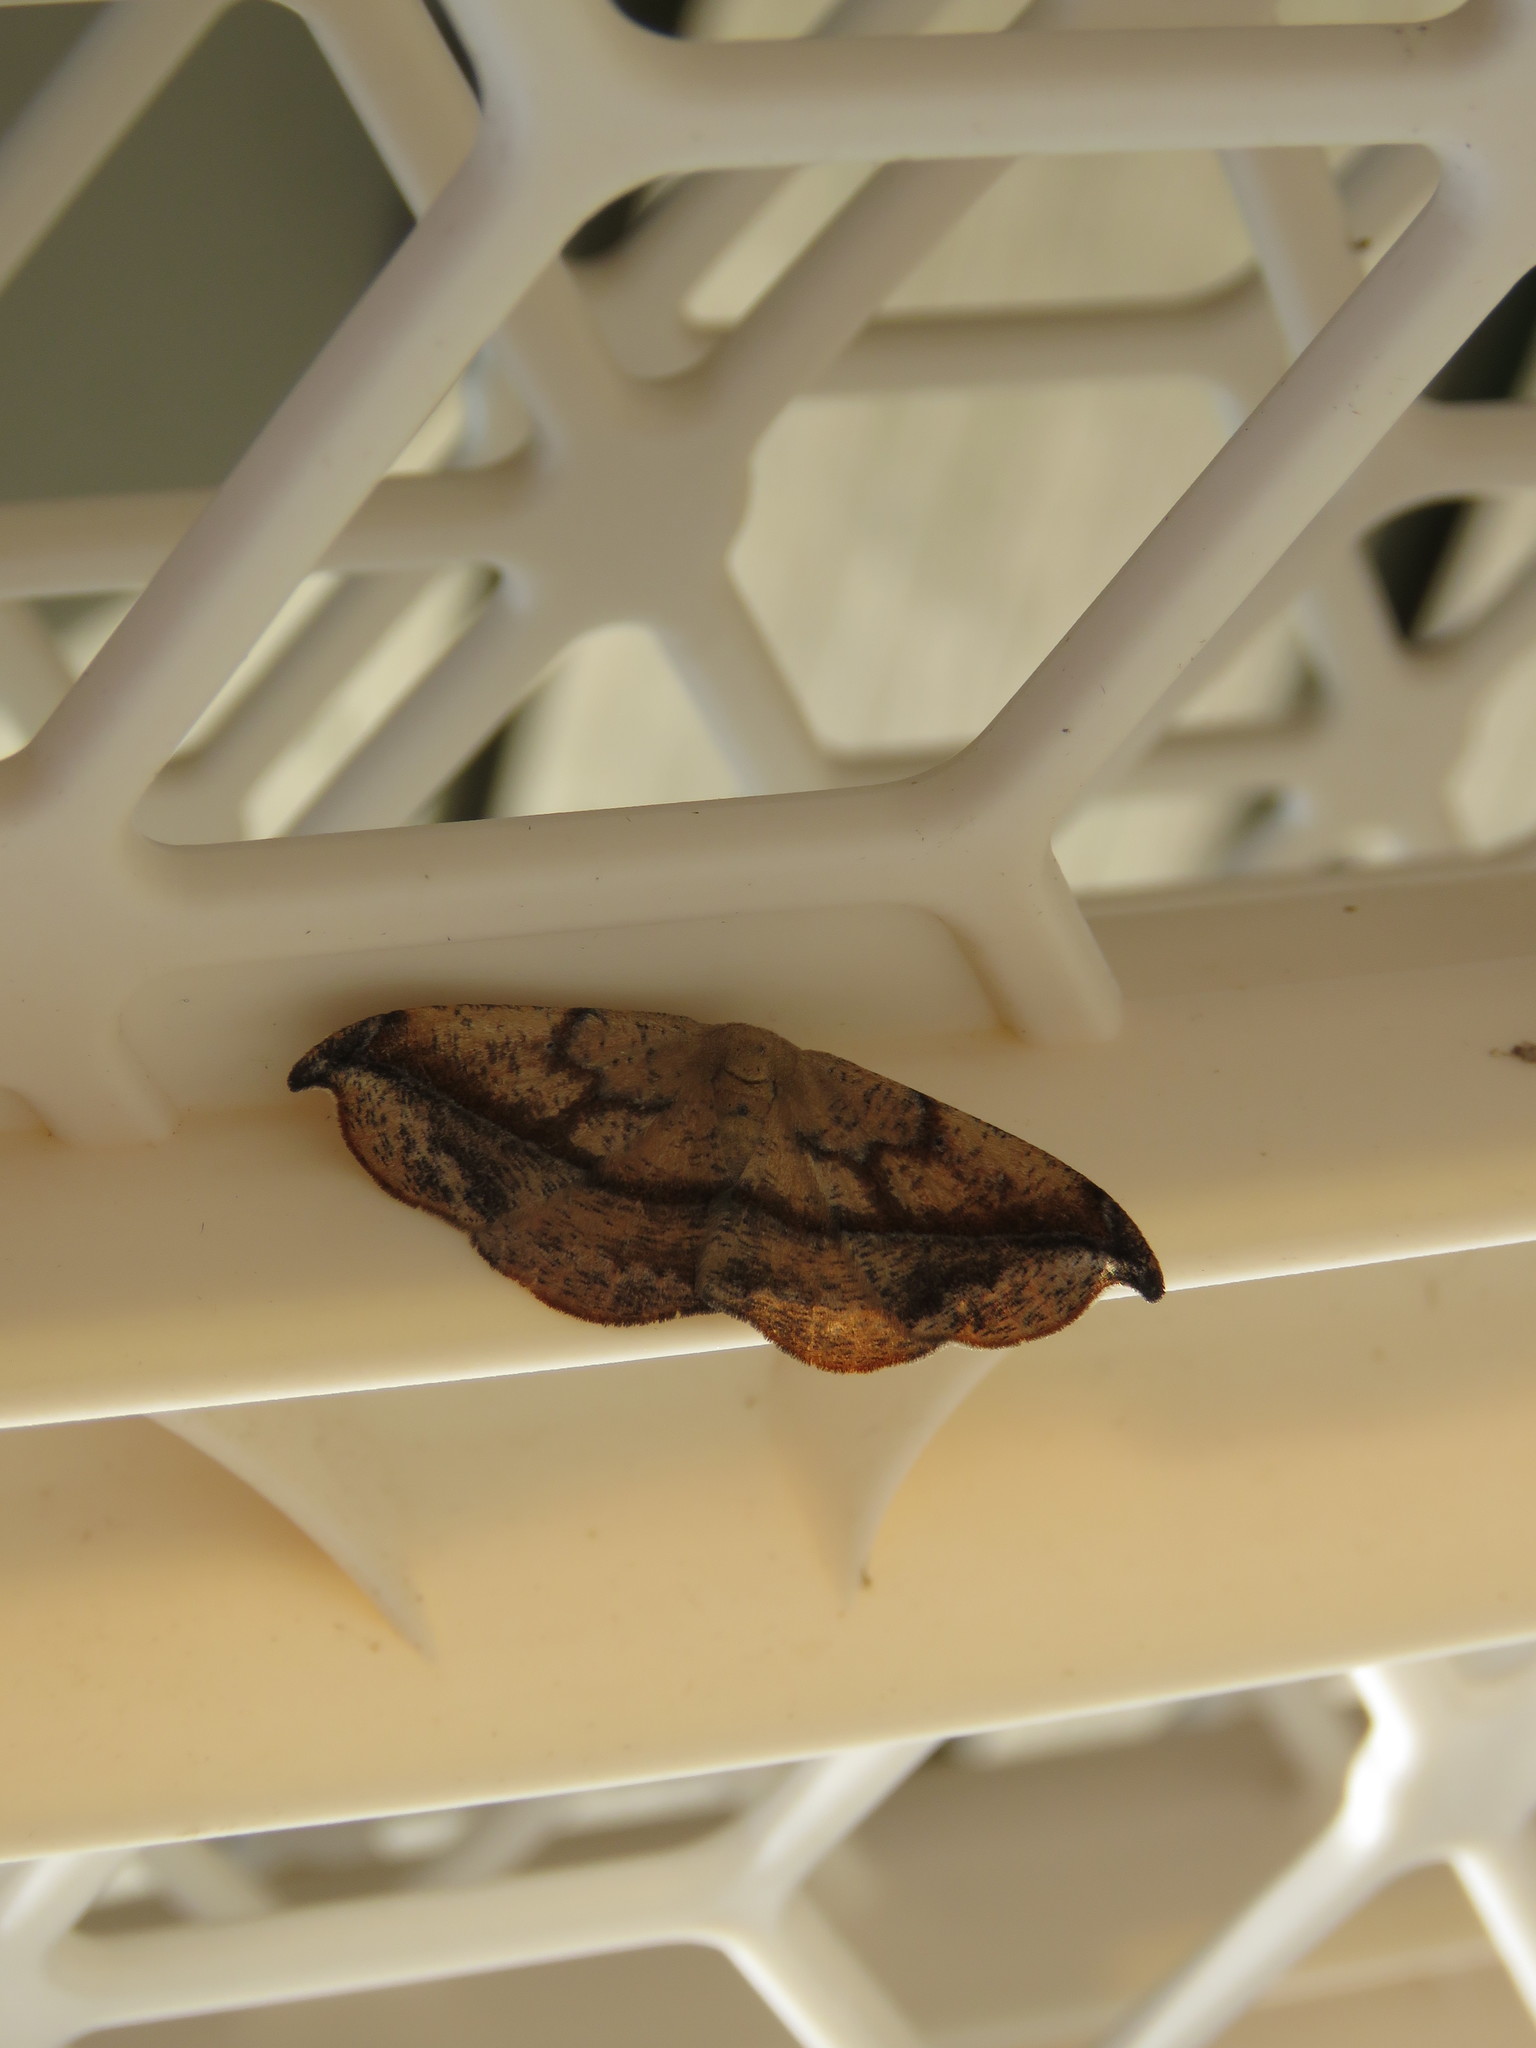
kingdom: Animalia
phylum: Arthropoda
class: Insecta
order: Lepidoptera
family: Geometridae
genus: Patalene
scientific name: Patalene olyzonaria
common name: Juniper geometer moth
